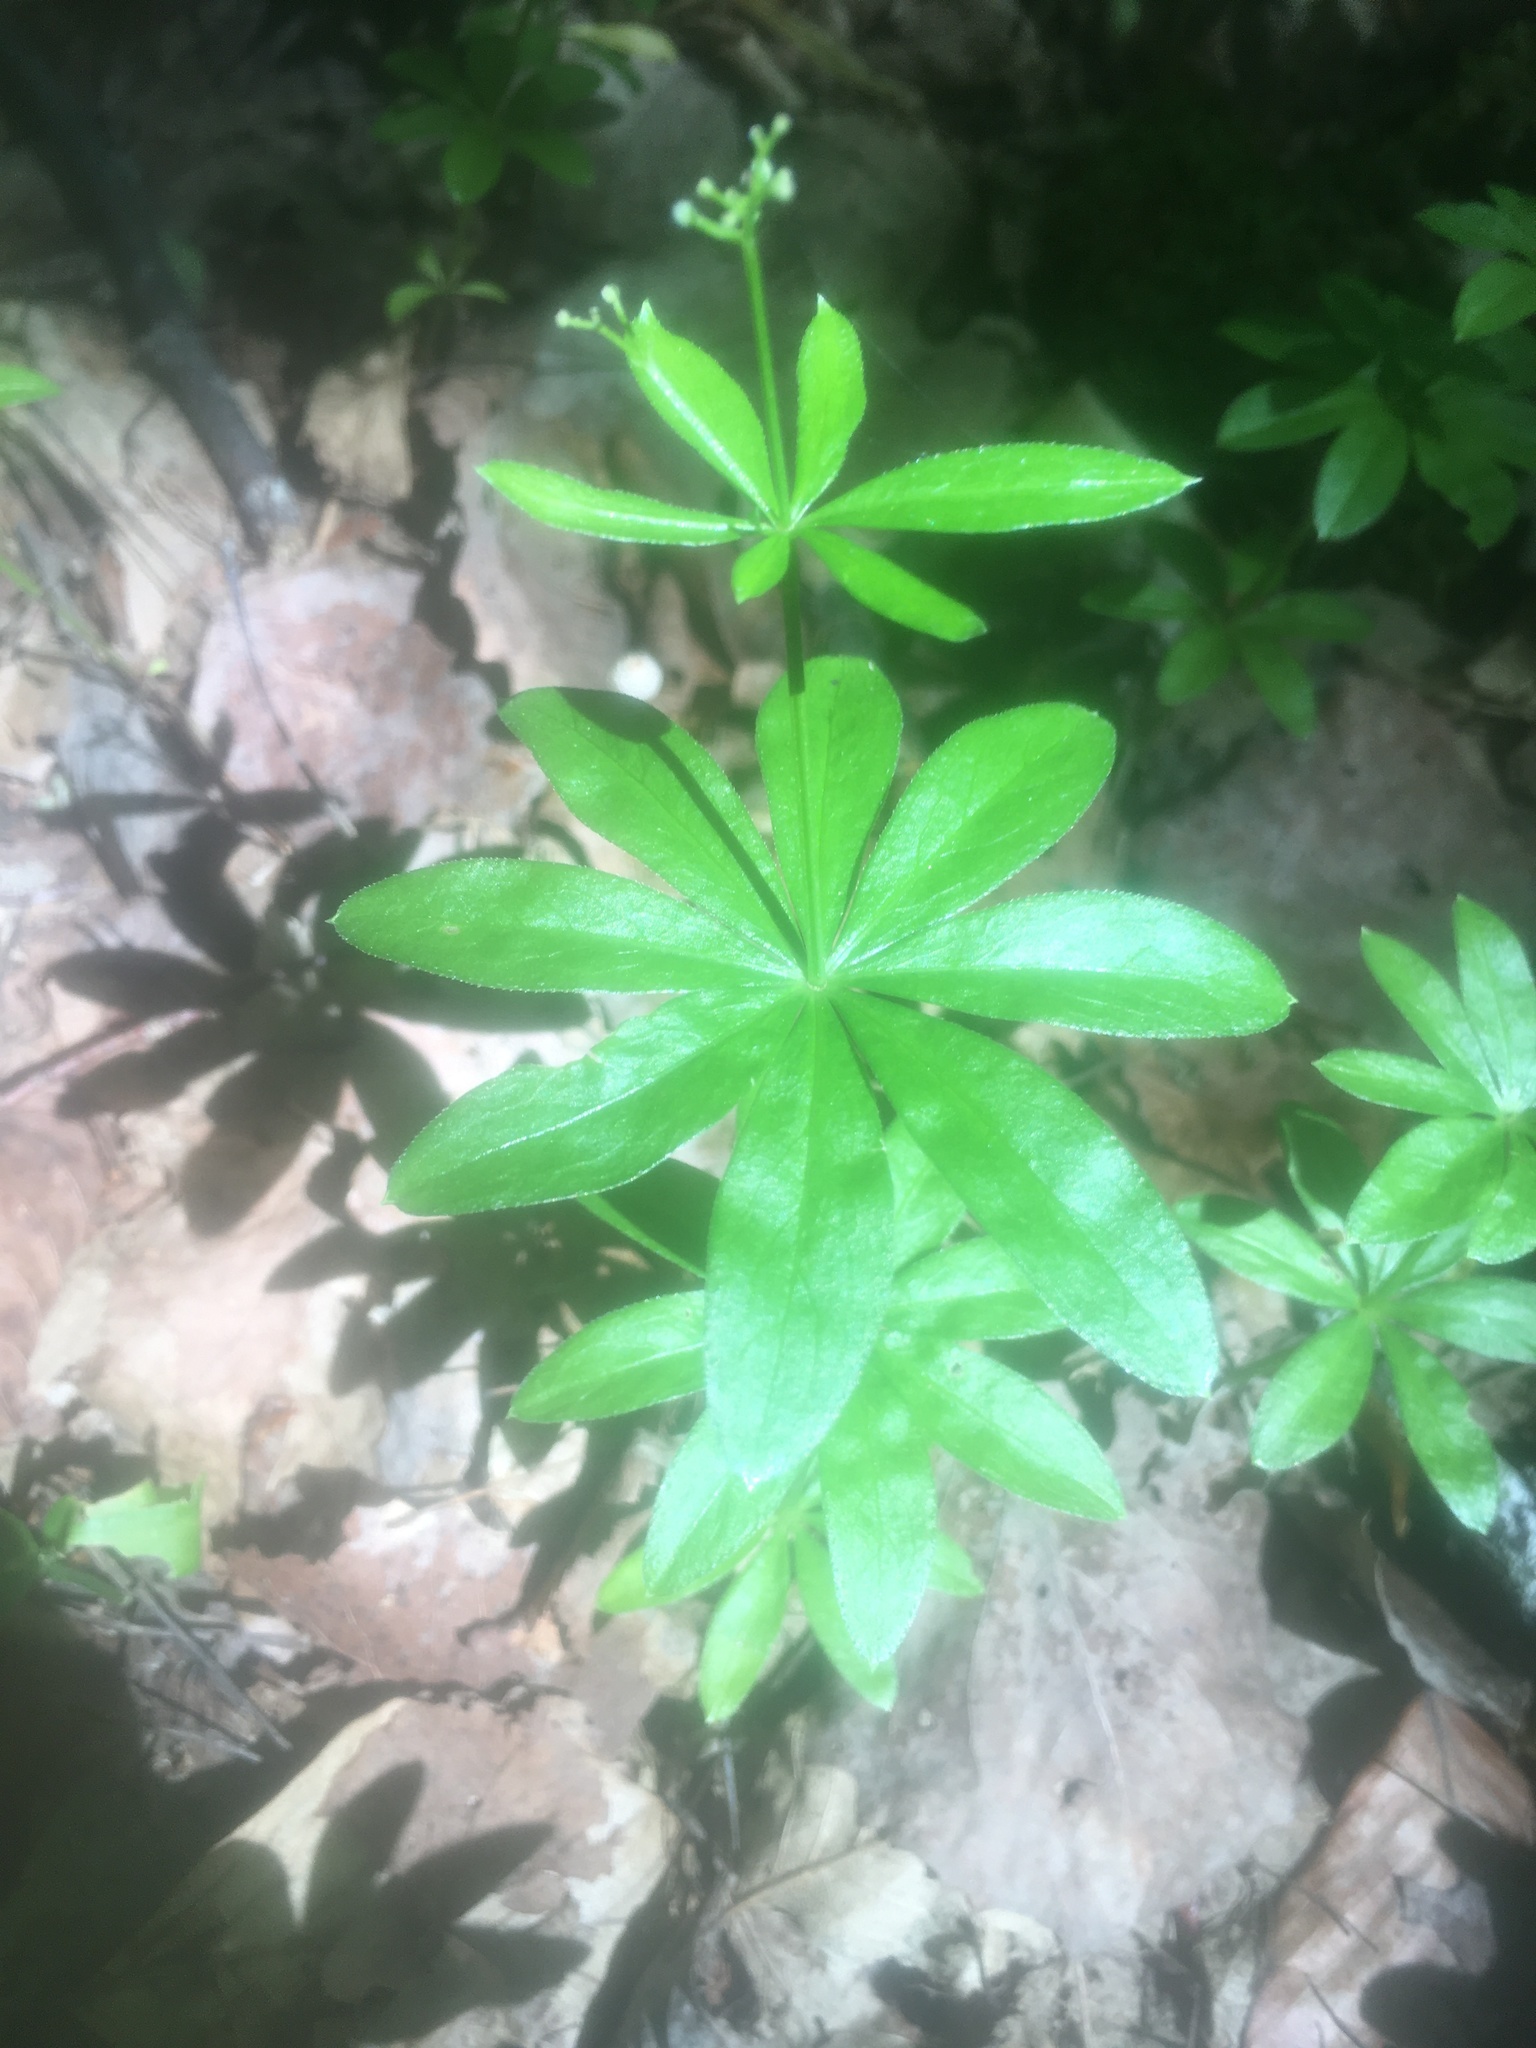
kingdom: Plantae
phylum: Tracheophyta
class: Magnoliopsida
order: Gentianales
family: Rubiaceae
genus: Galium
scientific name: Galium odoratum
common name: Sweet woodruff
